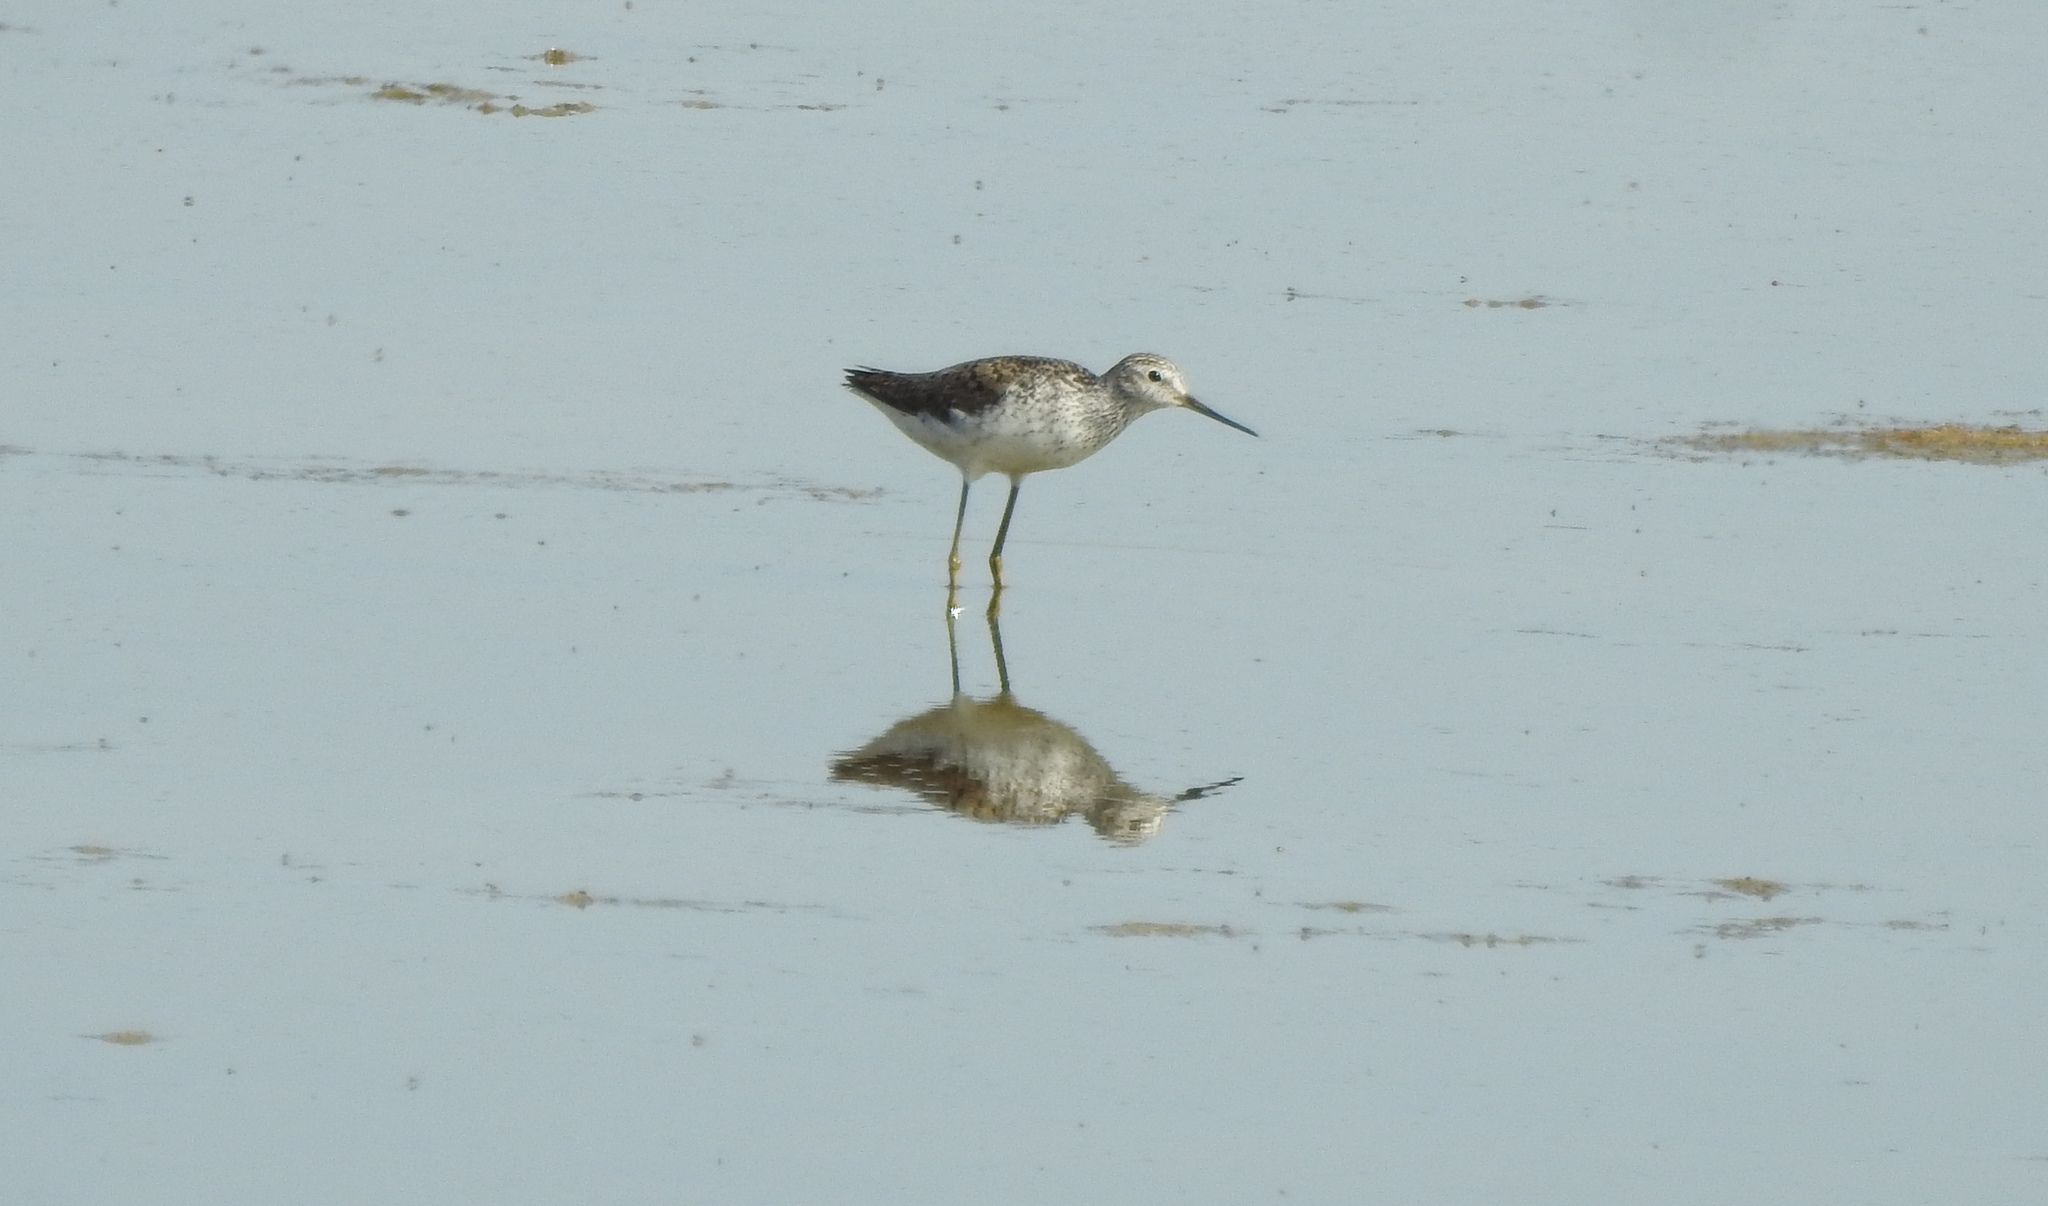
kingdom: Animalia
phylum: Chordata
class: Aves
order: Charadriiformes
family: Scolopacidae
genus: Tringa
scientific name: Tringa stagnatilis
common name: Marsh sandpiper
